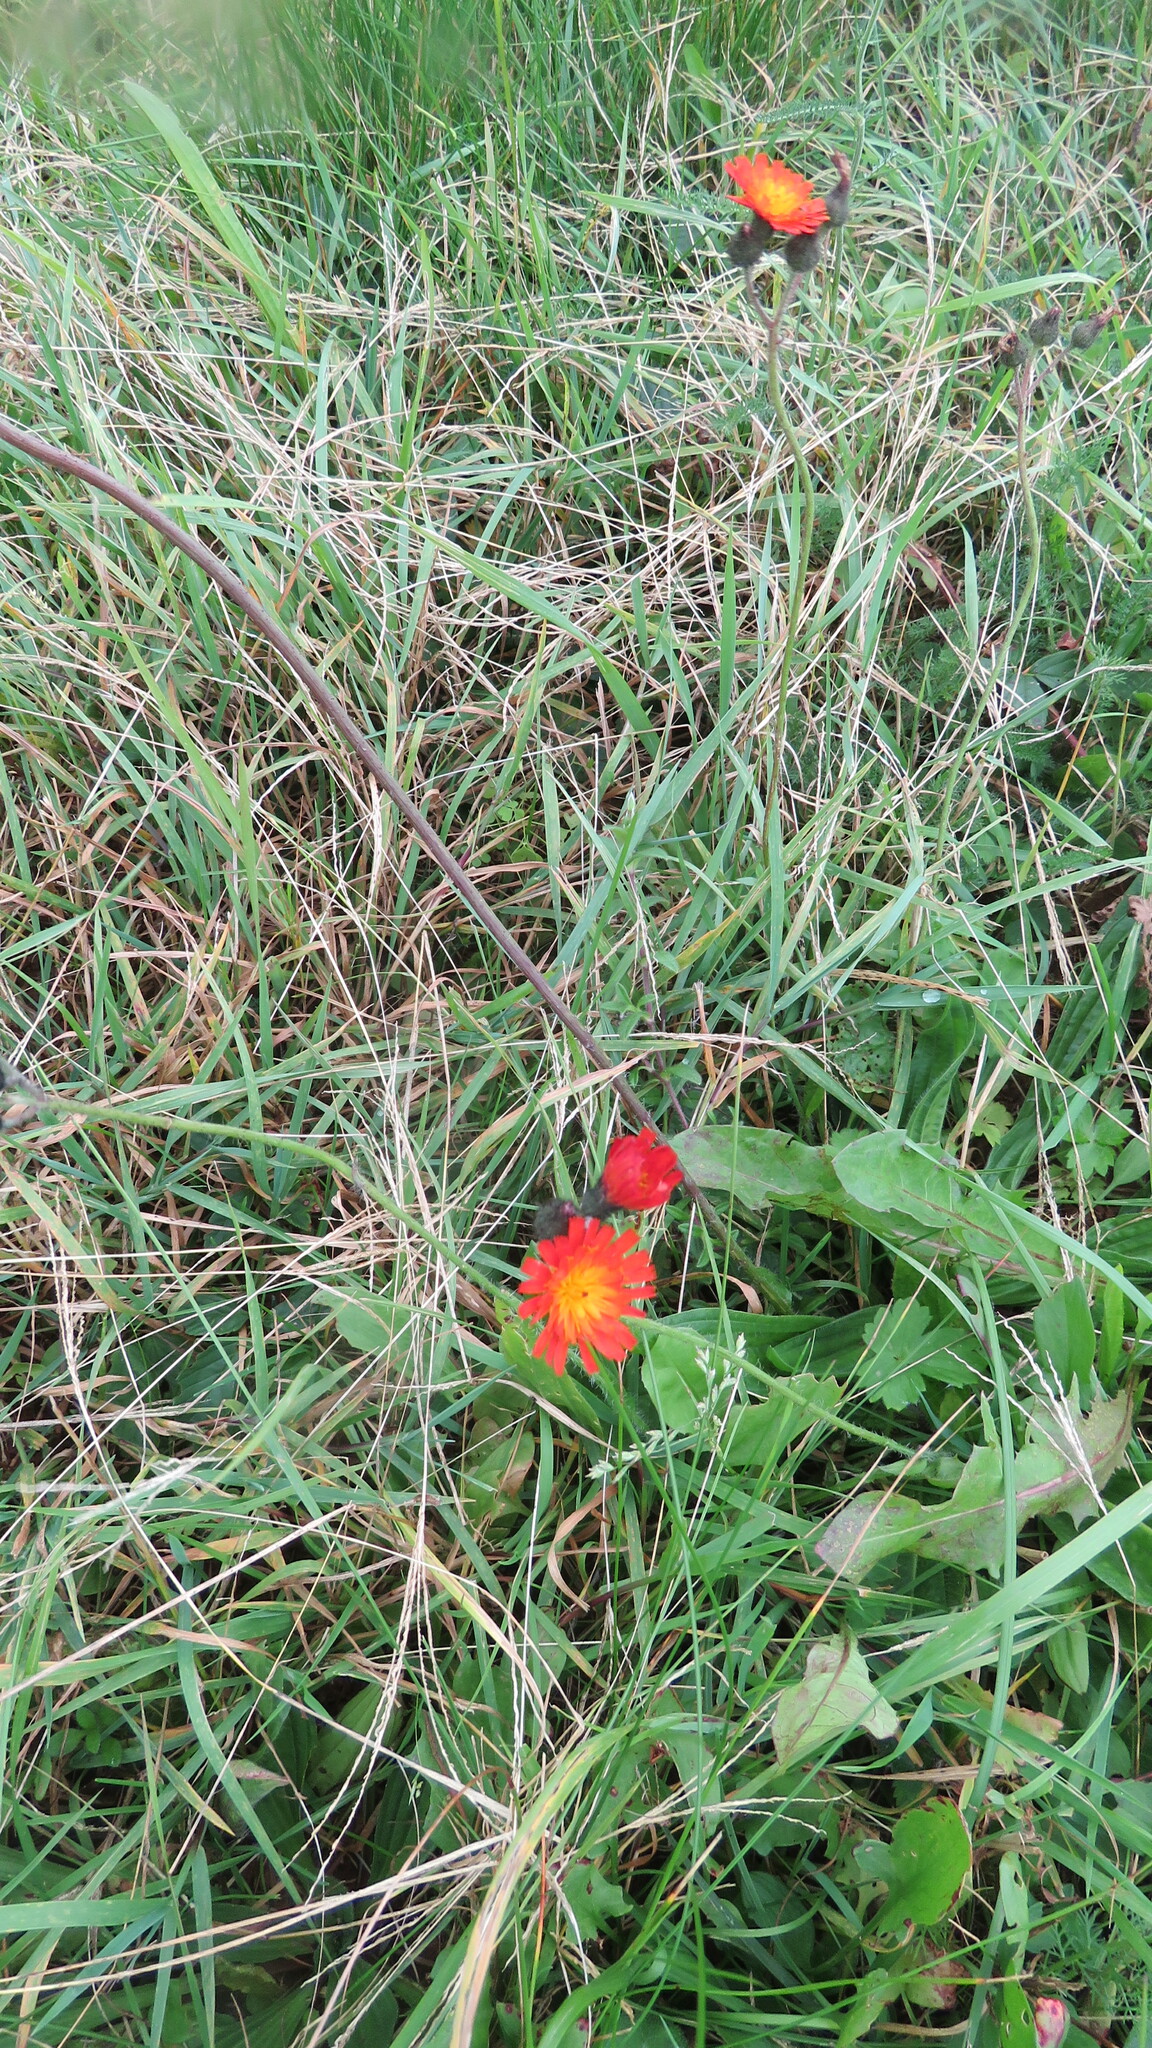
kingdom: Plantae
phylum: Tracheophyta
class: Magnoliopsida
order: Asterales
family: Asteraceae
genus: Pilosella
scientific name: Pilosella aurantiaca
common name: Fox-and-cubs
